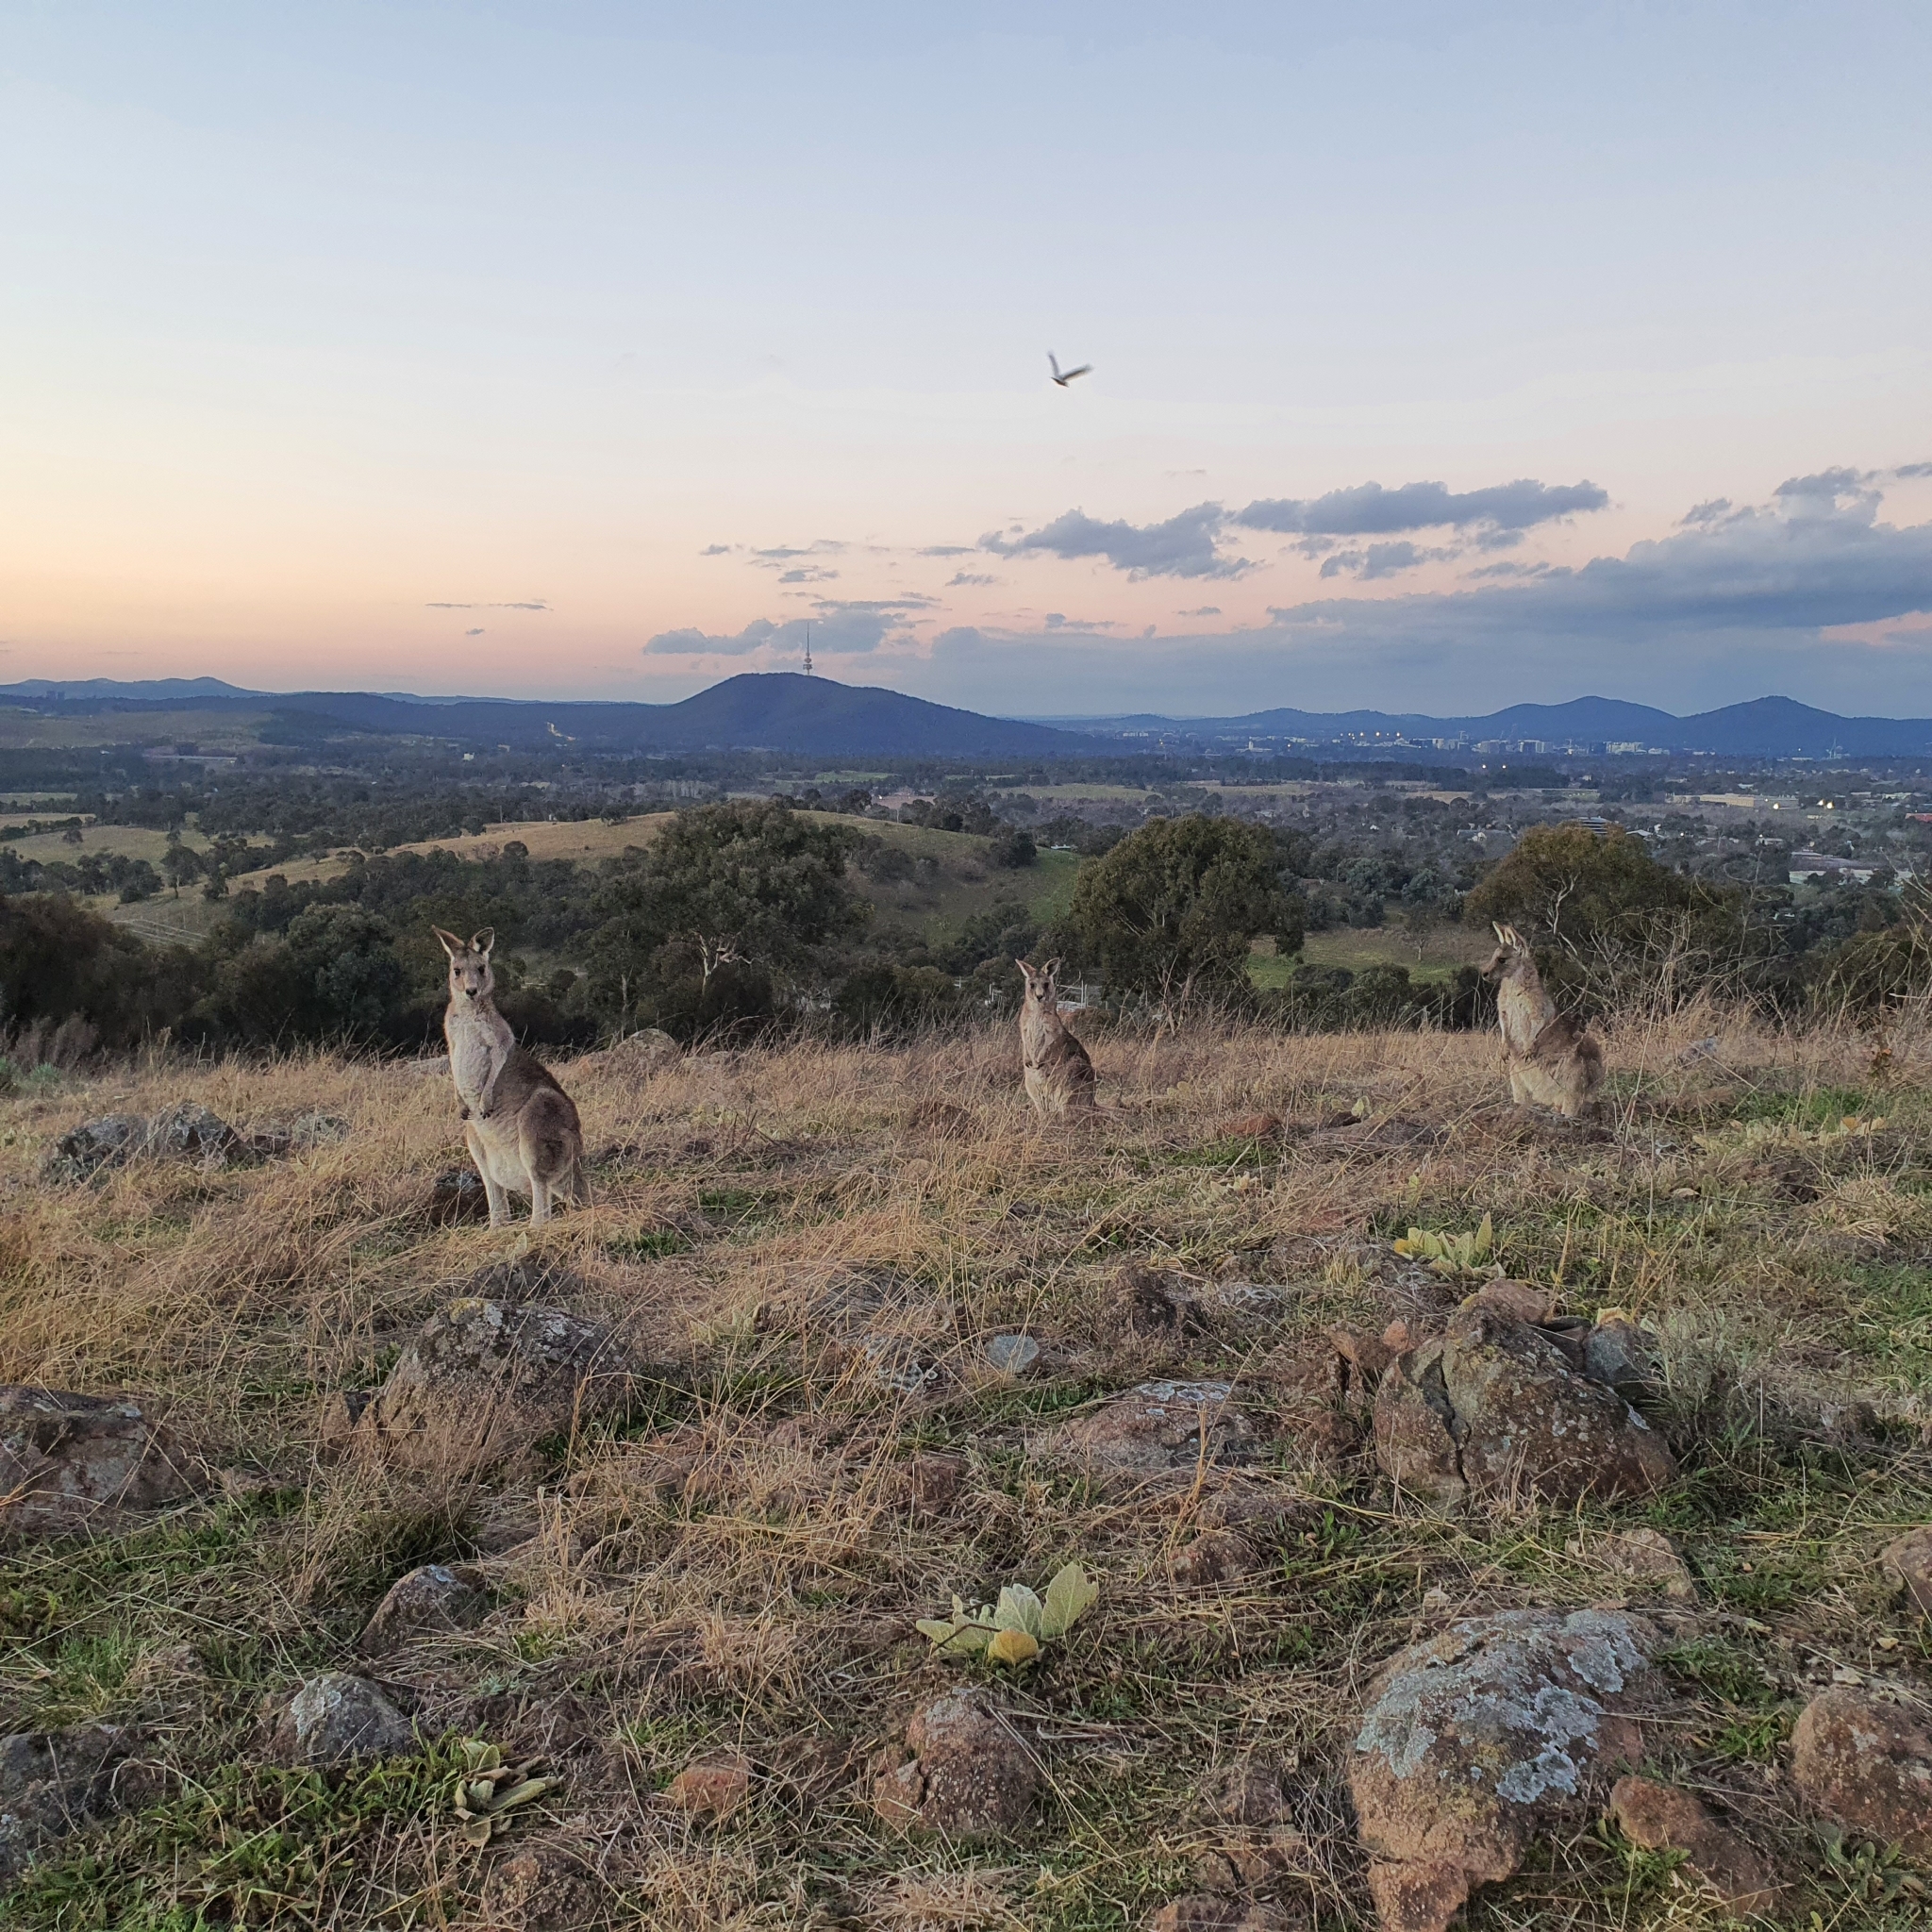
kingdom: Animalia
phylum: Chordata
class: Mammalia
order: Diprotodontia
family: Macropodidae
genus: Macropus
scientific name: Macropus giganteus
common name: Eastern grey kangaroo
